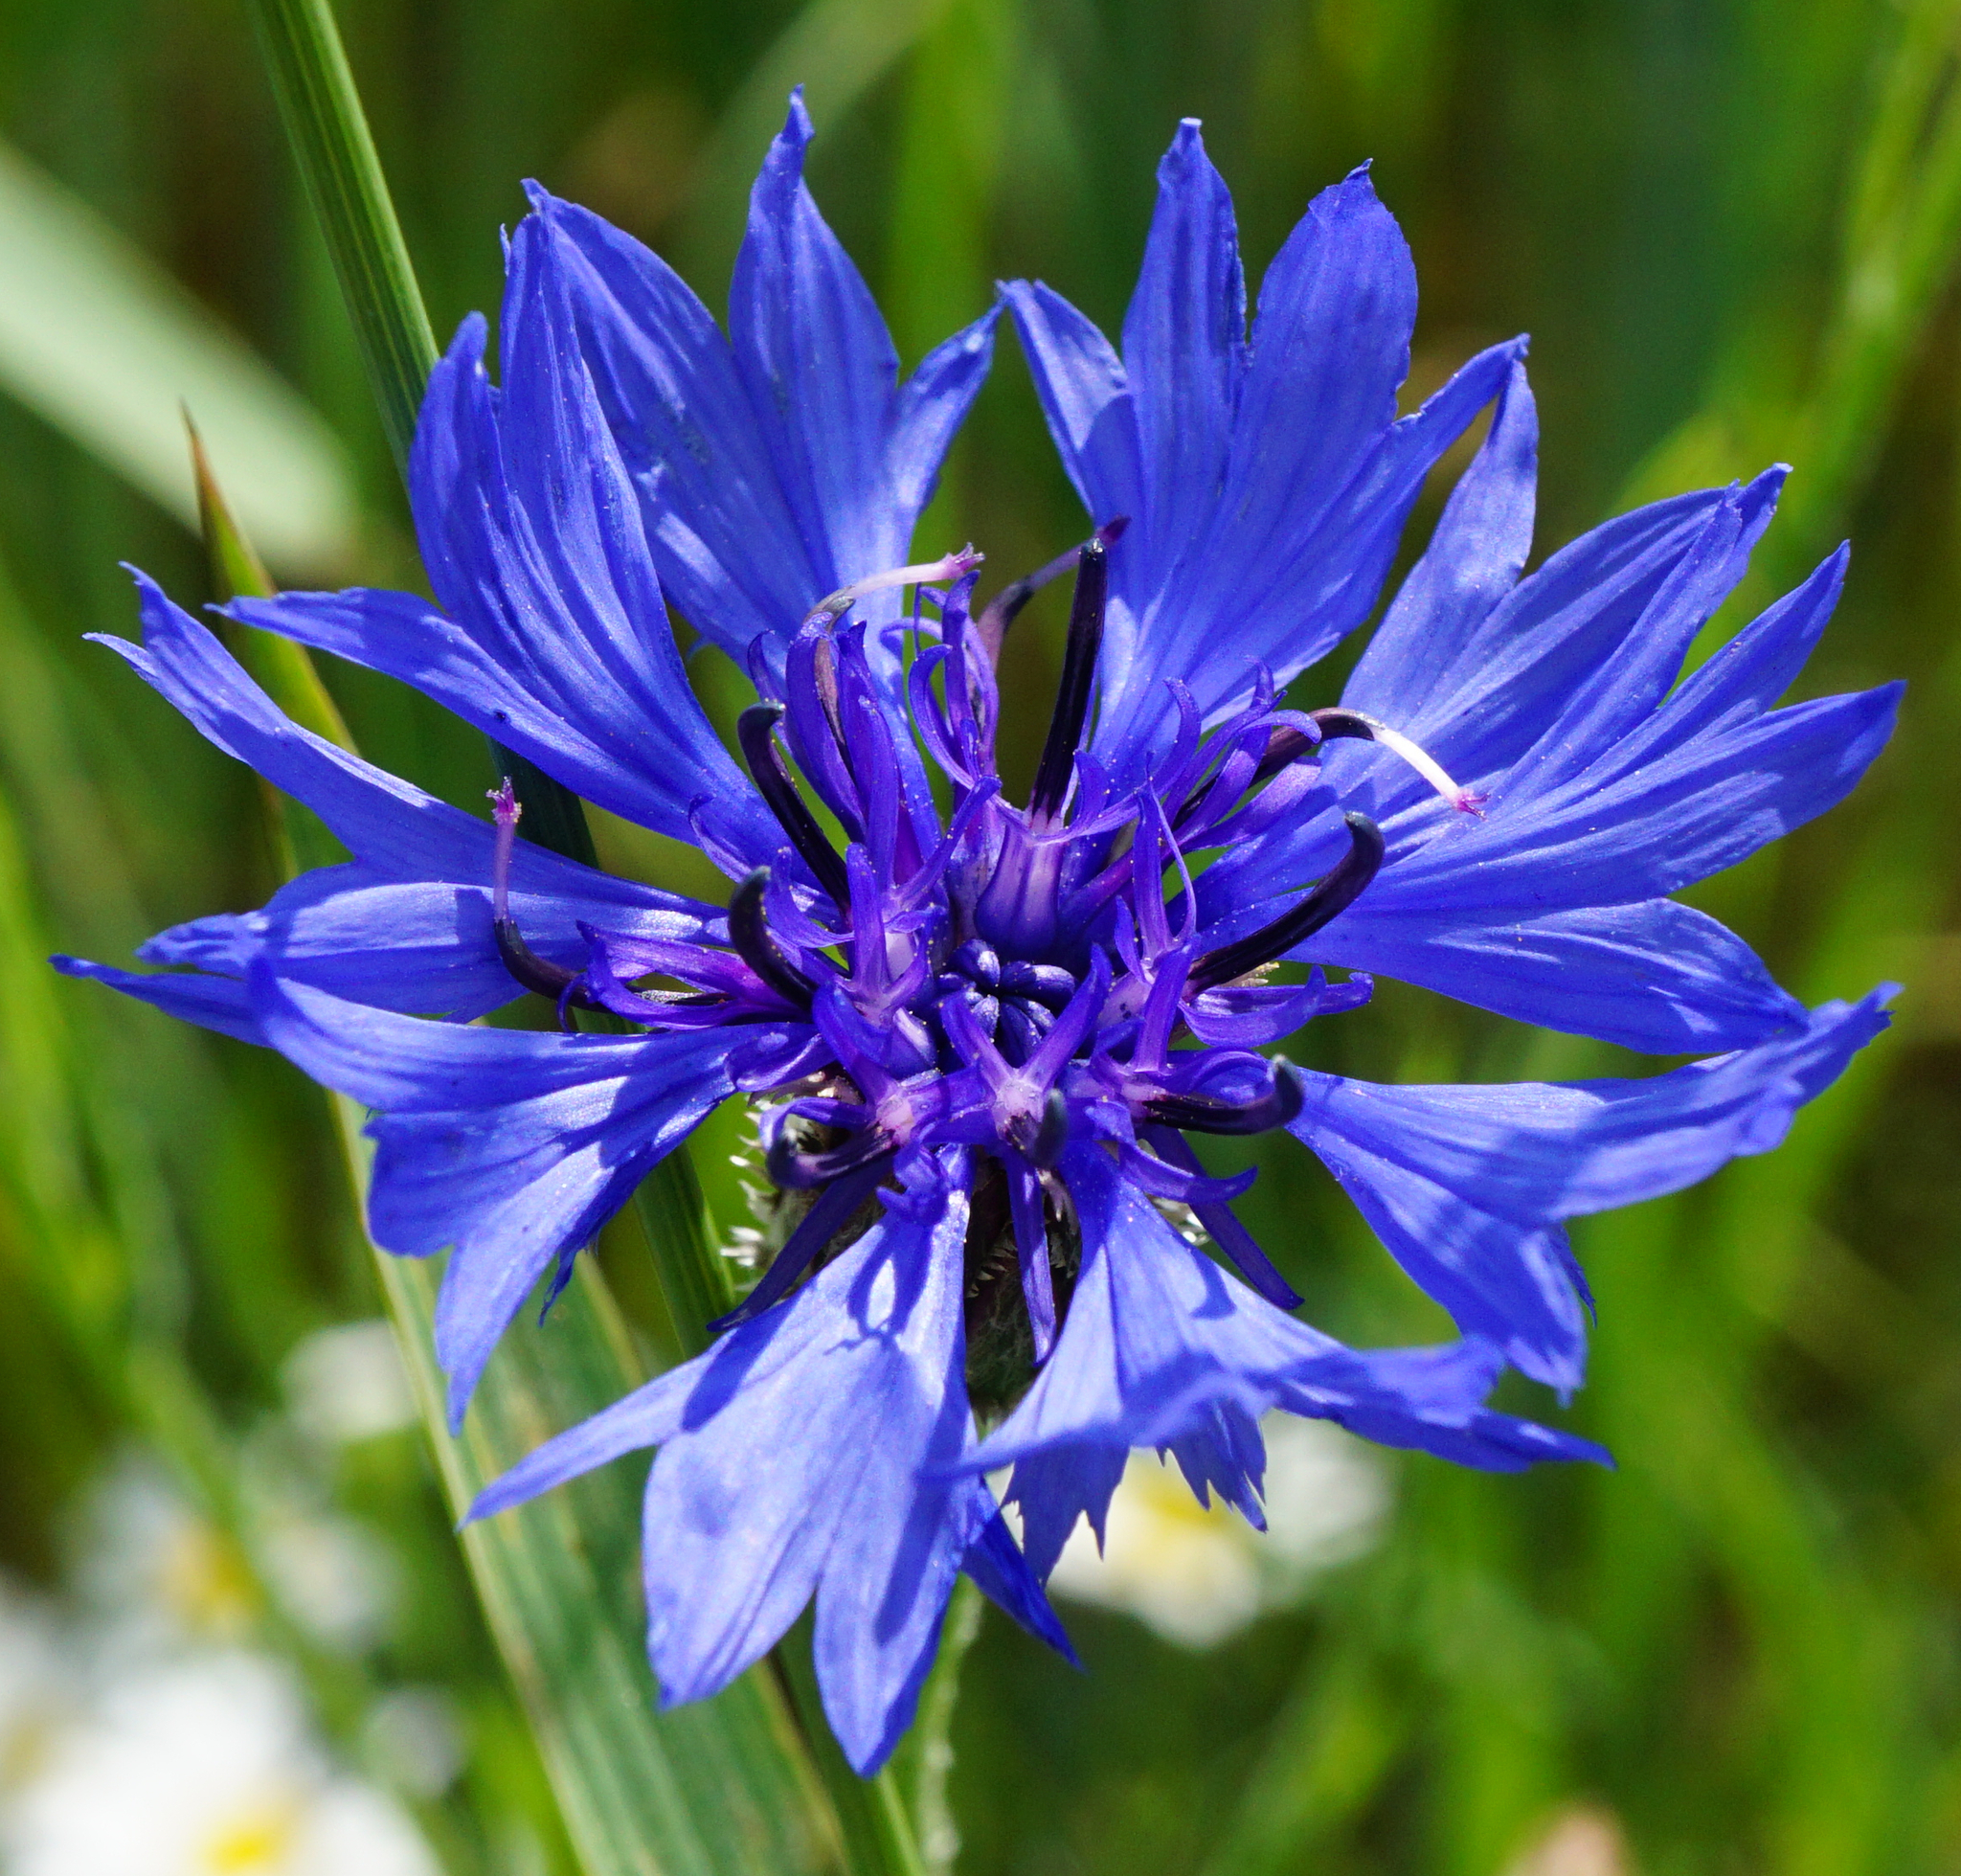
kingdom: Plantae
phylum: Tracheophyta
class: Magnoliopsida
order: Asterales
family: Asteraceae
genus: Centaurea
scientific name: Centaurea cyanus
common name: Cornflower
